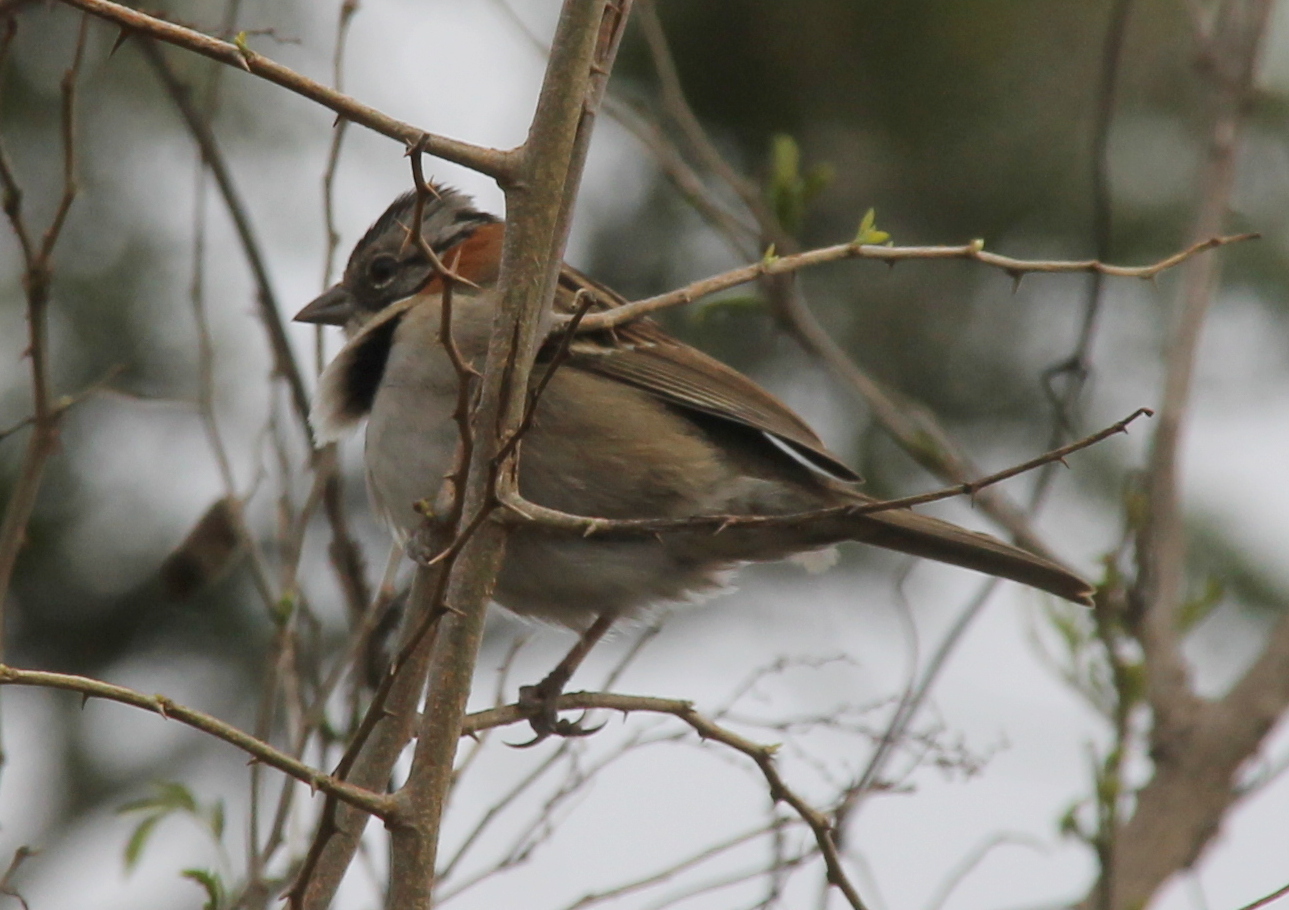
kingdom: Animalia
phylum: Chordata
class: Aves
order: Passeriformes
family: Passerellidae
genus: Zonotrichia
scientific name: Zonotrichia capensis
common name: Rufous-collared sparrow
